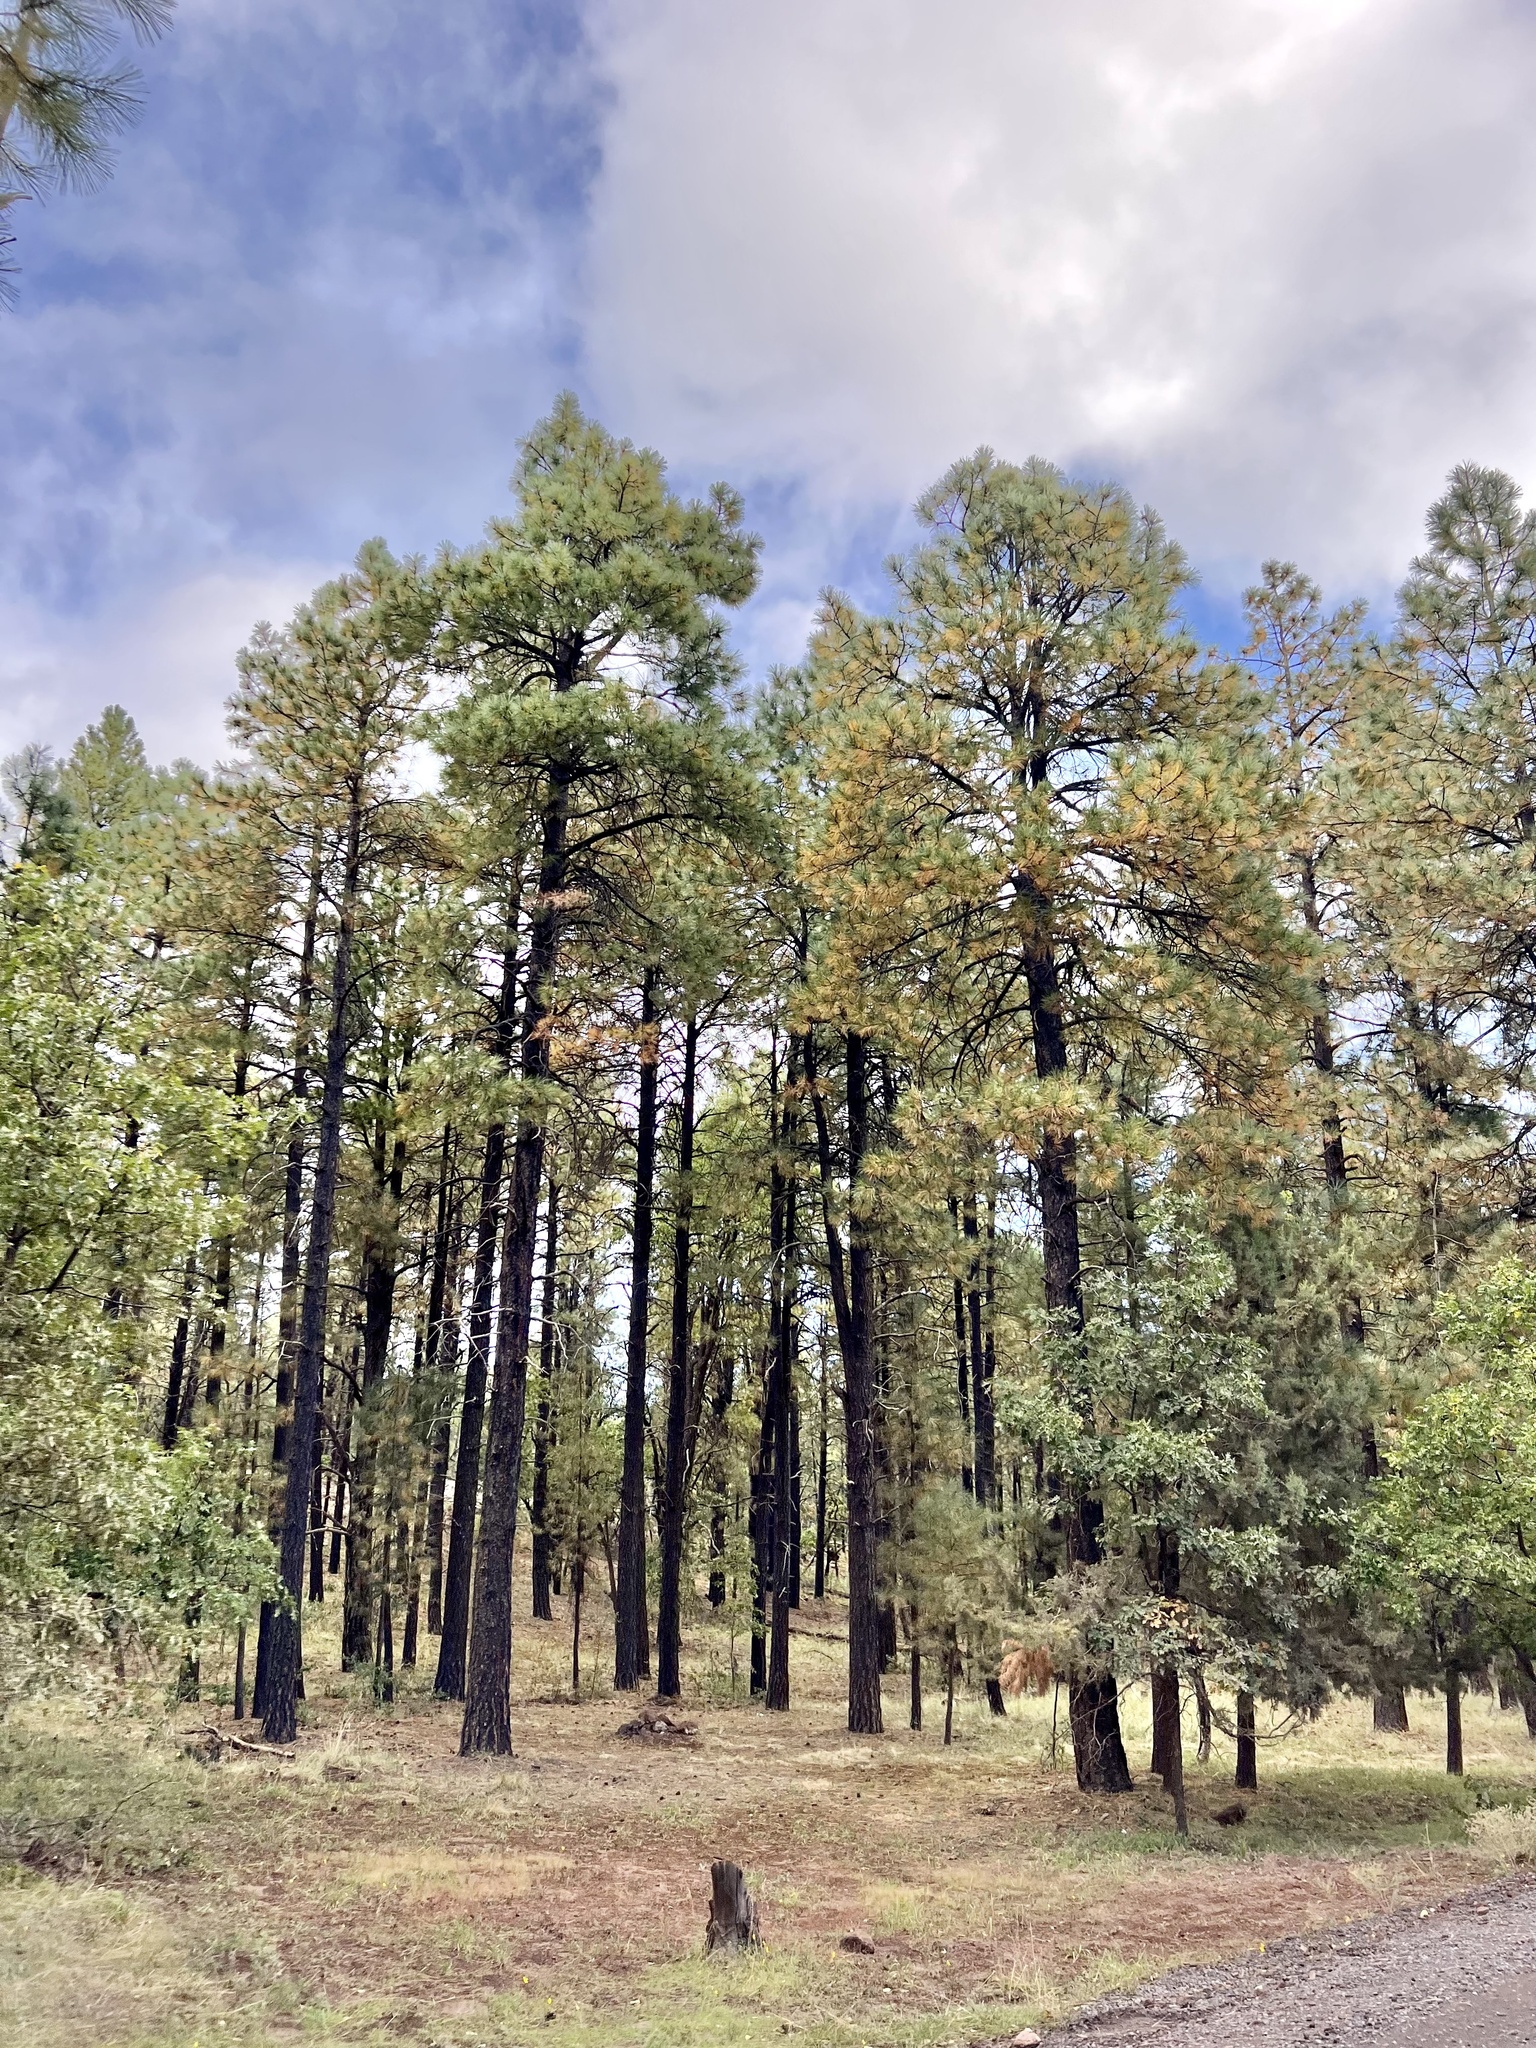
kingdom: Plantae
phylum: Tracheophyta
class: Pinopsida
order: Pinales
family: Pinaceae
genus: Pinus
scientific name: Pinus ponderosa
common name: Western yellow-pine
